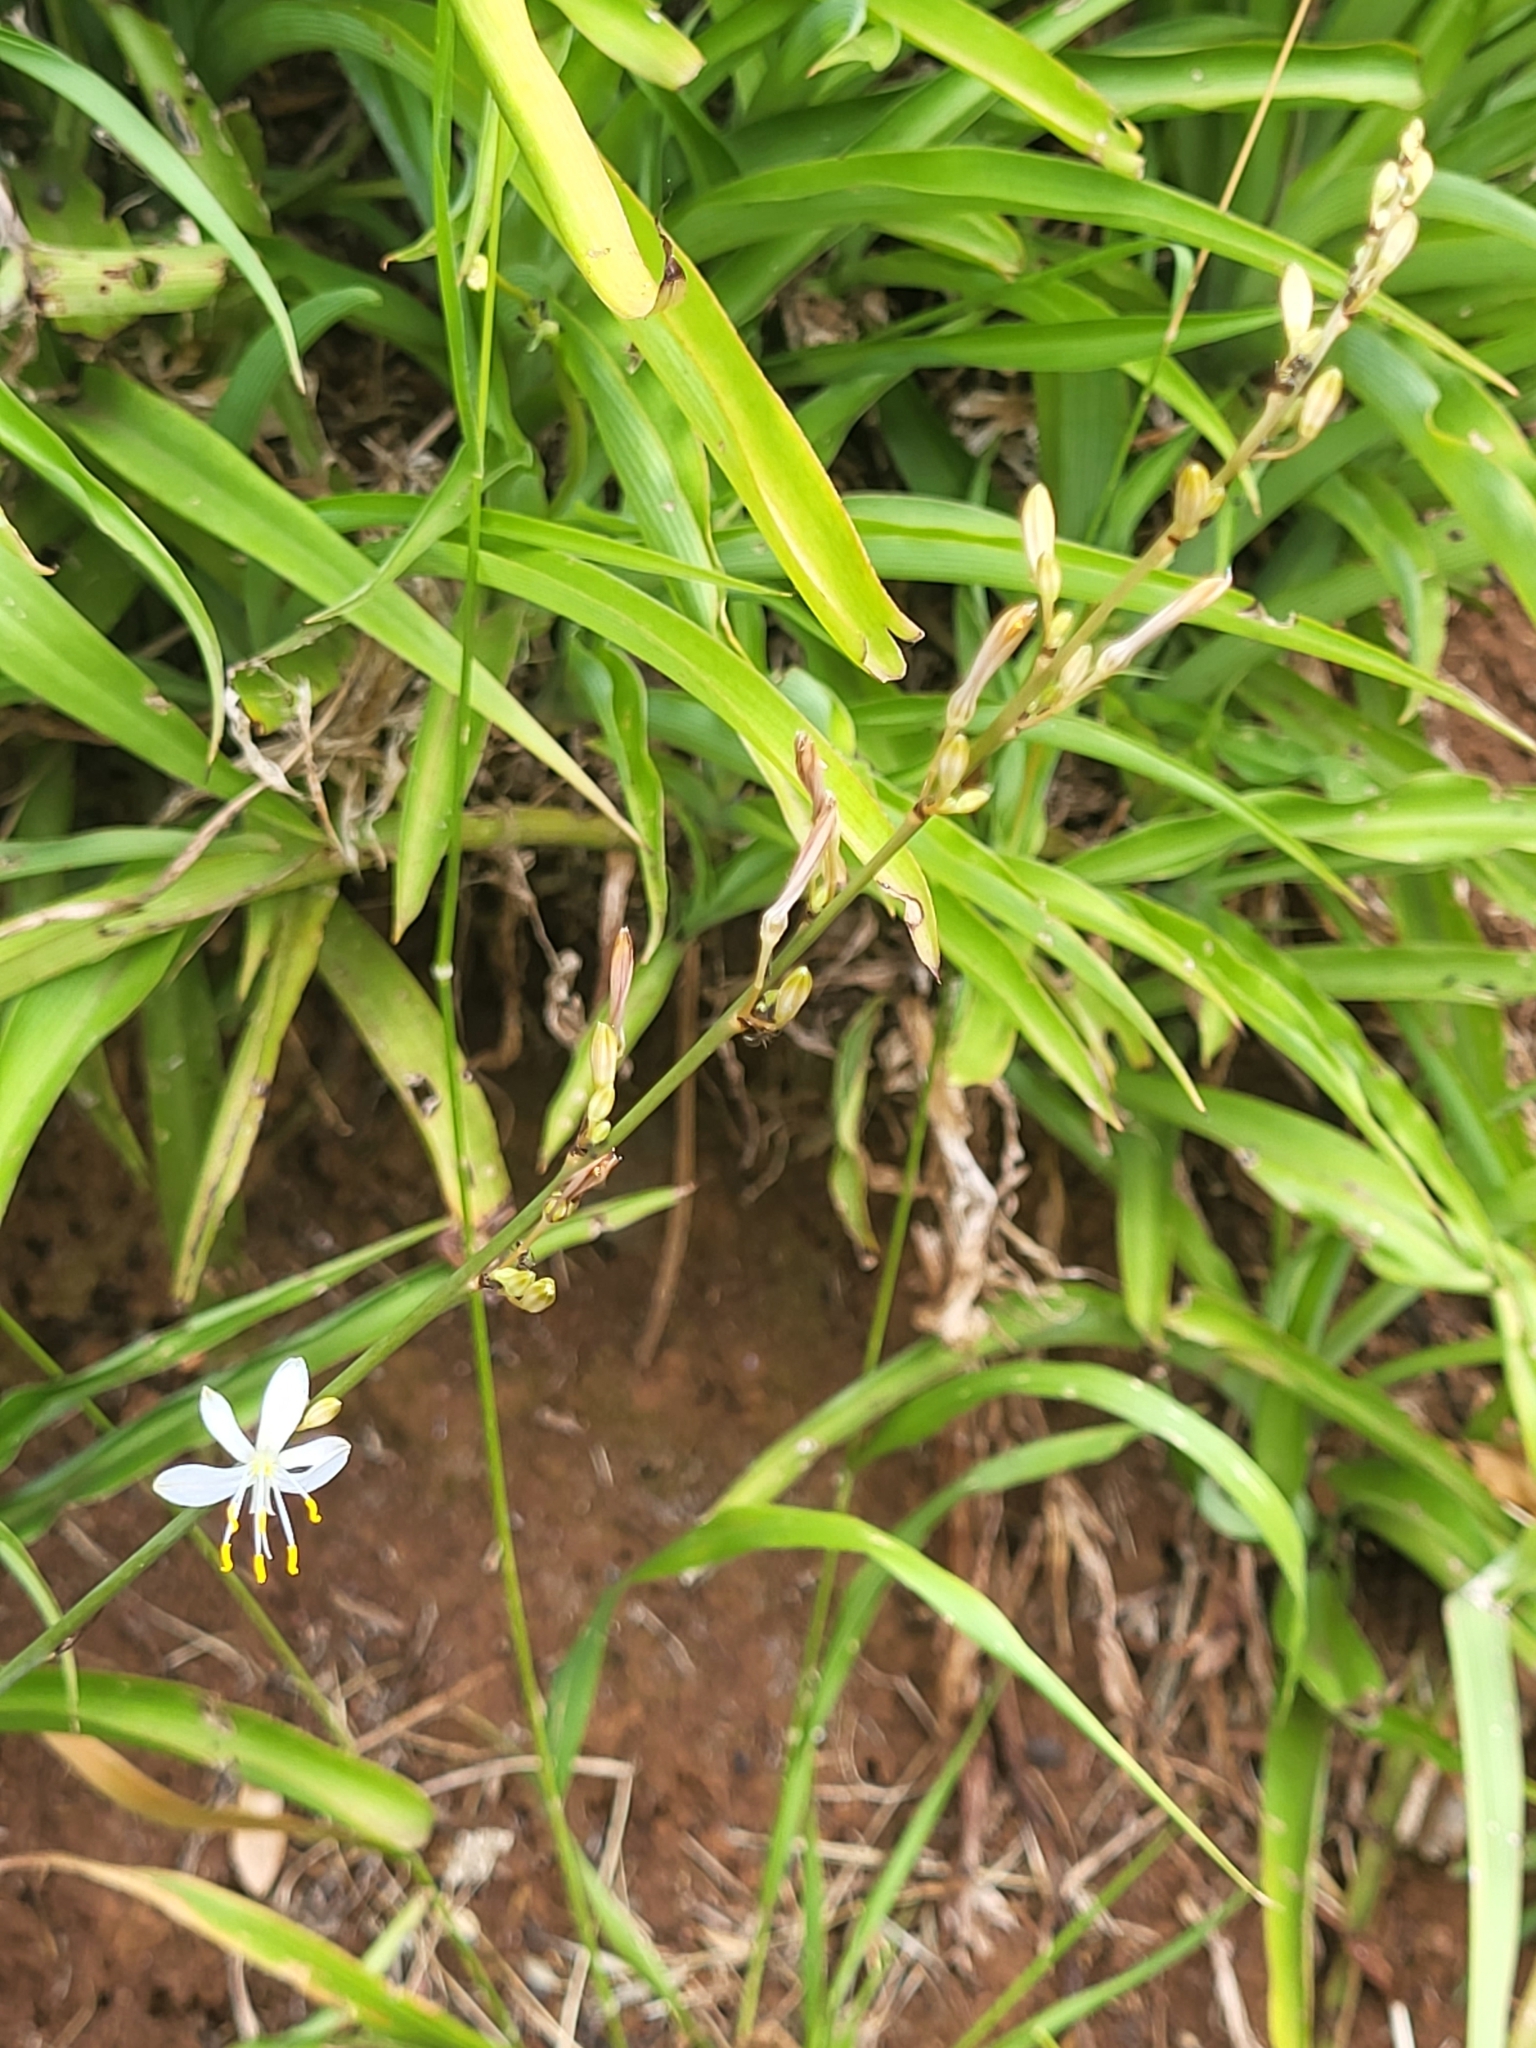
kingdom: Plantae
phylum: Tracheophyta
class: Liliopsida
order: Asparagales
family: Asparagaceae
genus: Chlorophytum
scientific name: Chlorophytum comosum
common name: Spider plant
